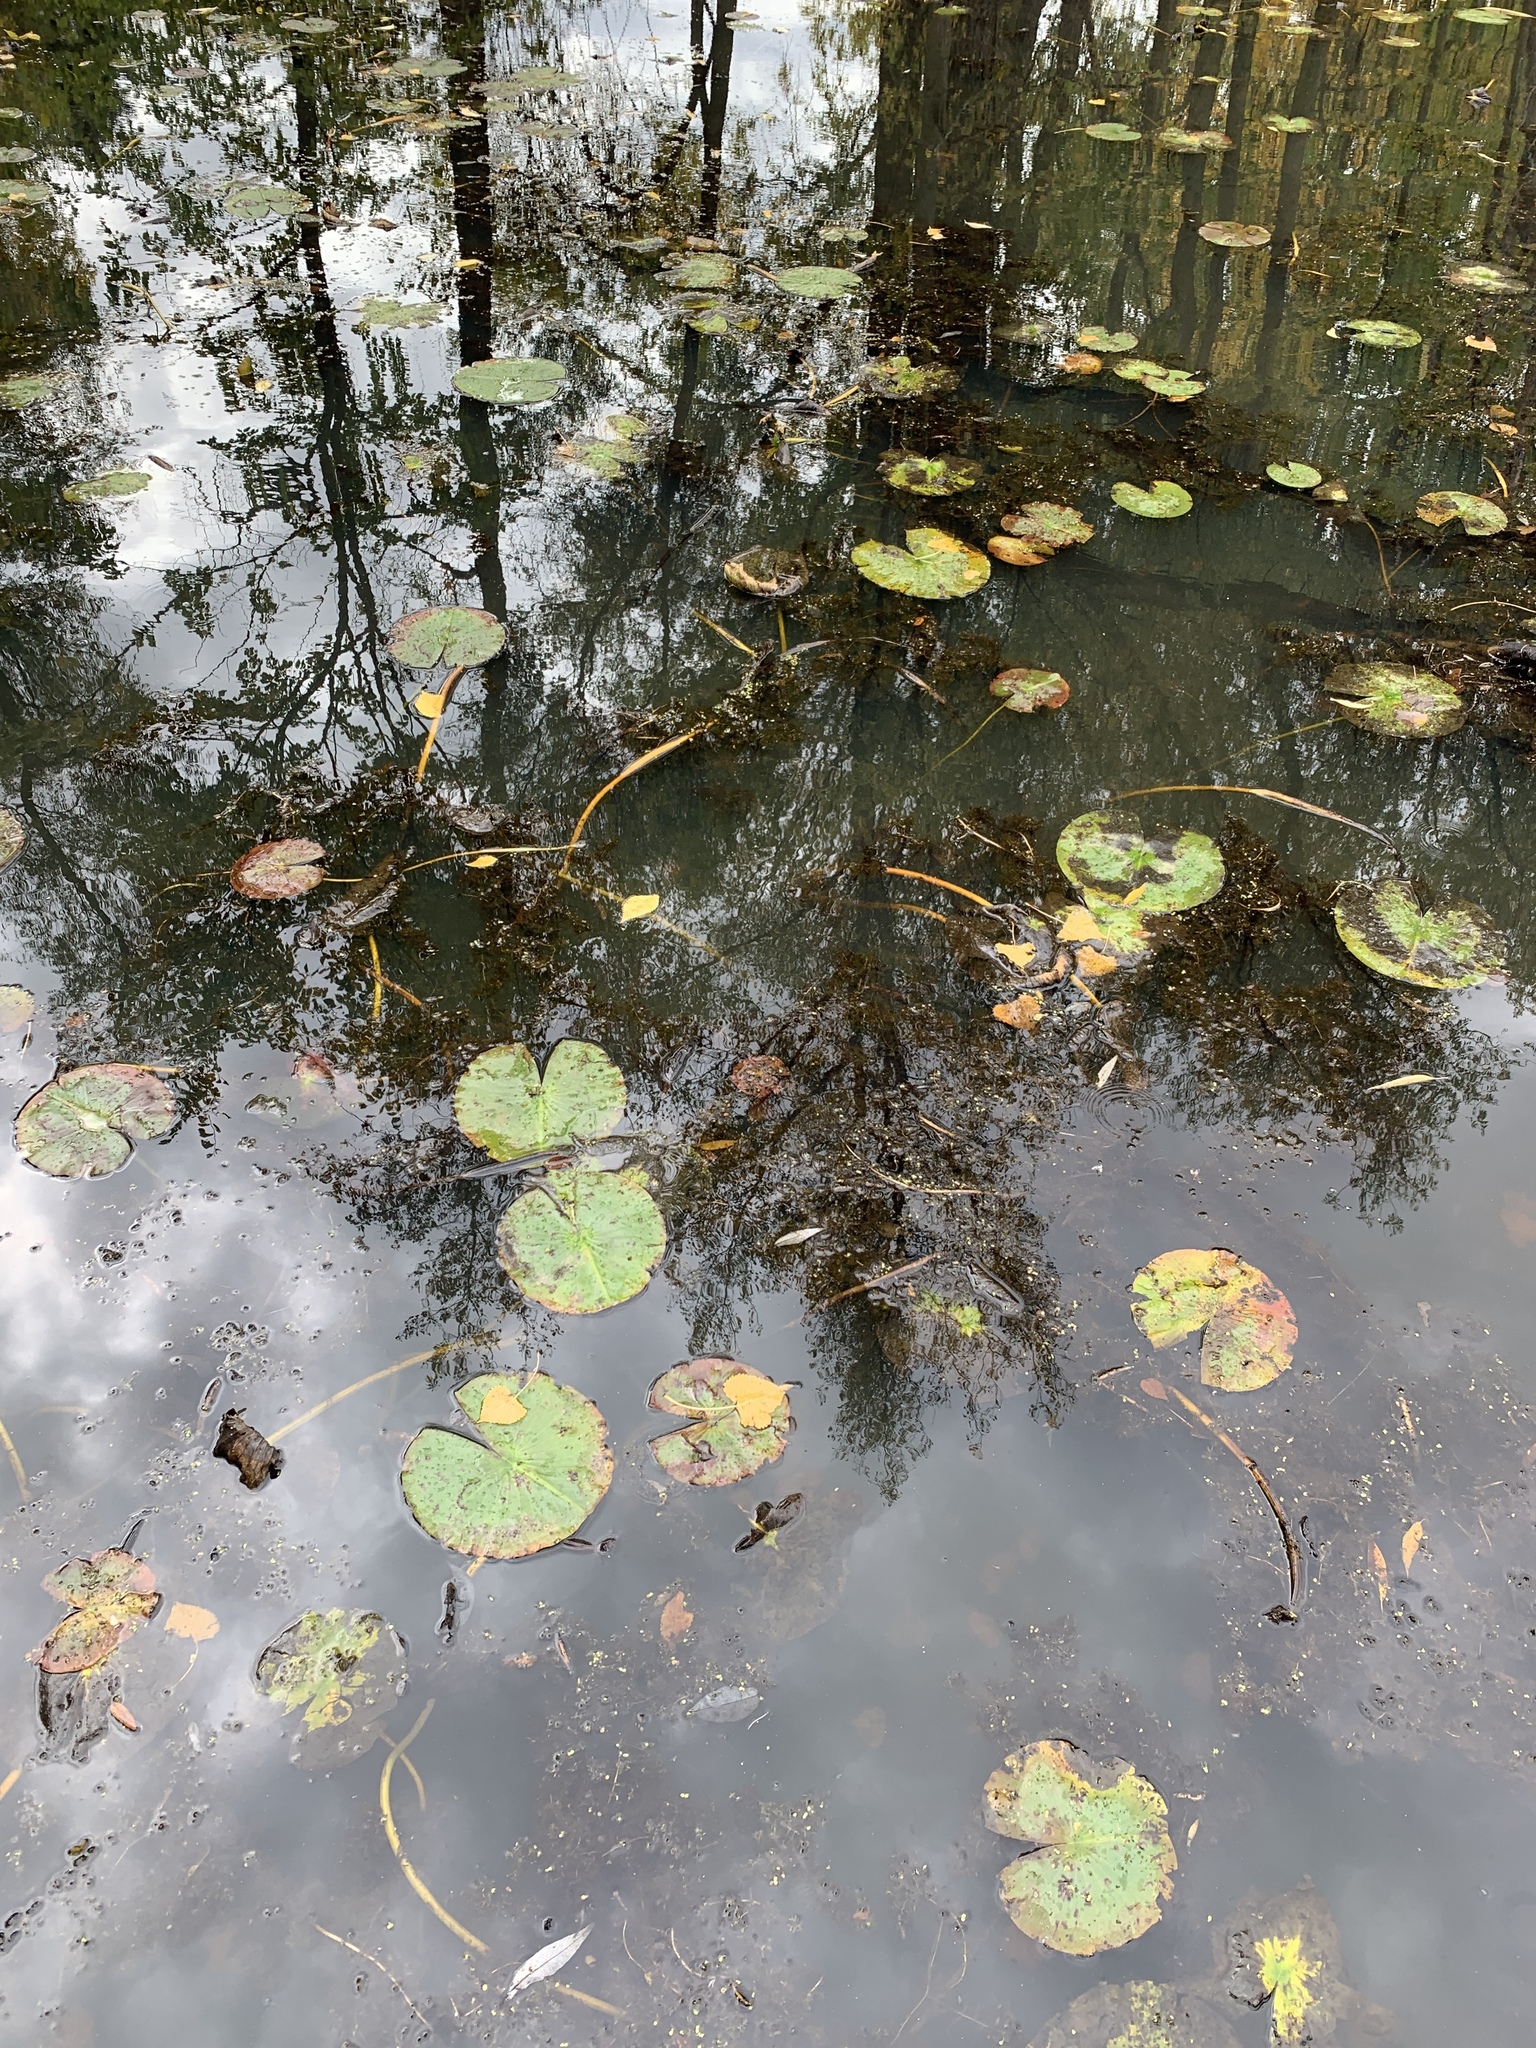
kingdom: Plantae
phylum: Tracheophyta
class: Magnoliopsida
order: Nymphaeales
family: Nymphaeaceae
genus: Nymphaea
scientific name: Nymphaea odorata
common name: Fragrant water-lily
